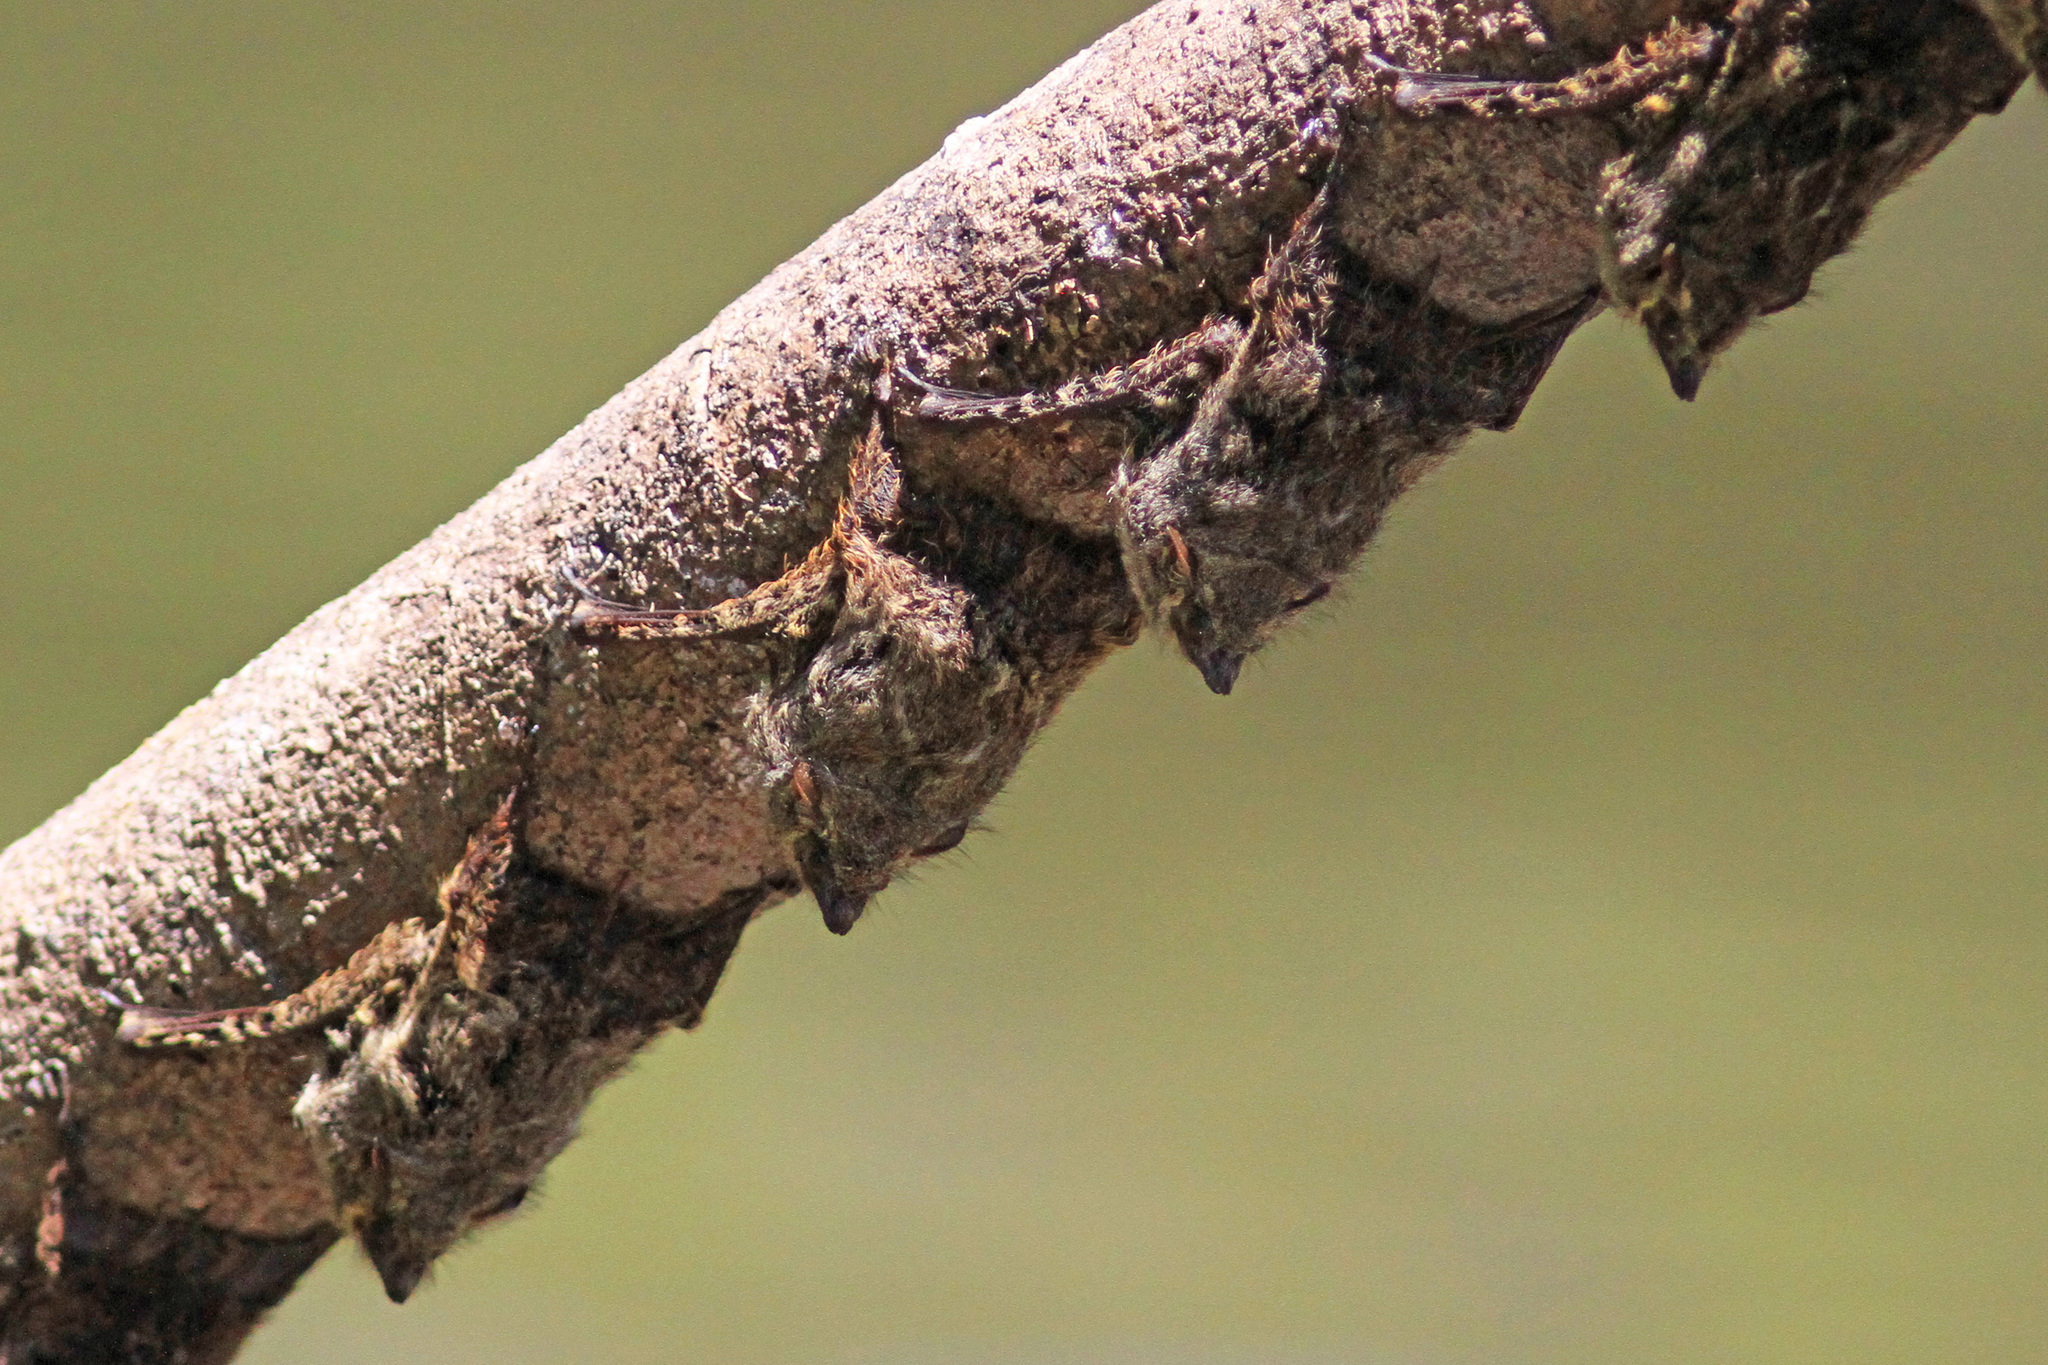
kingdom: Animalia
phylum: Chordata
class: Mammalia
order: Chiroptera
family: Emballonuridae
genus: Rhynchonycteris
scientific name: Rhynchonycteris naso
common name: Proboscis bat
